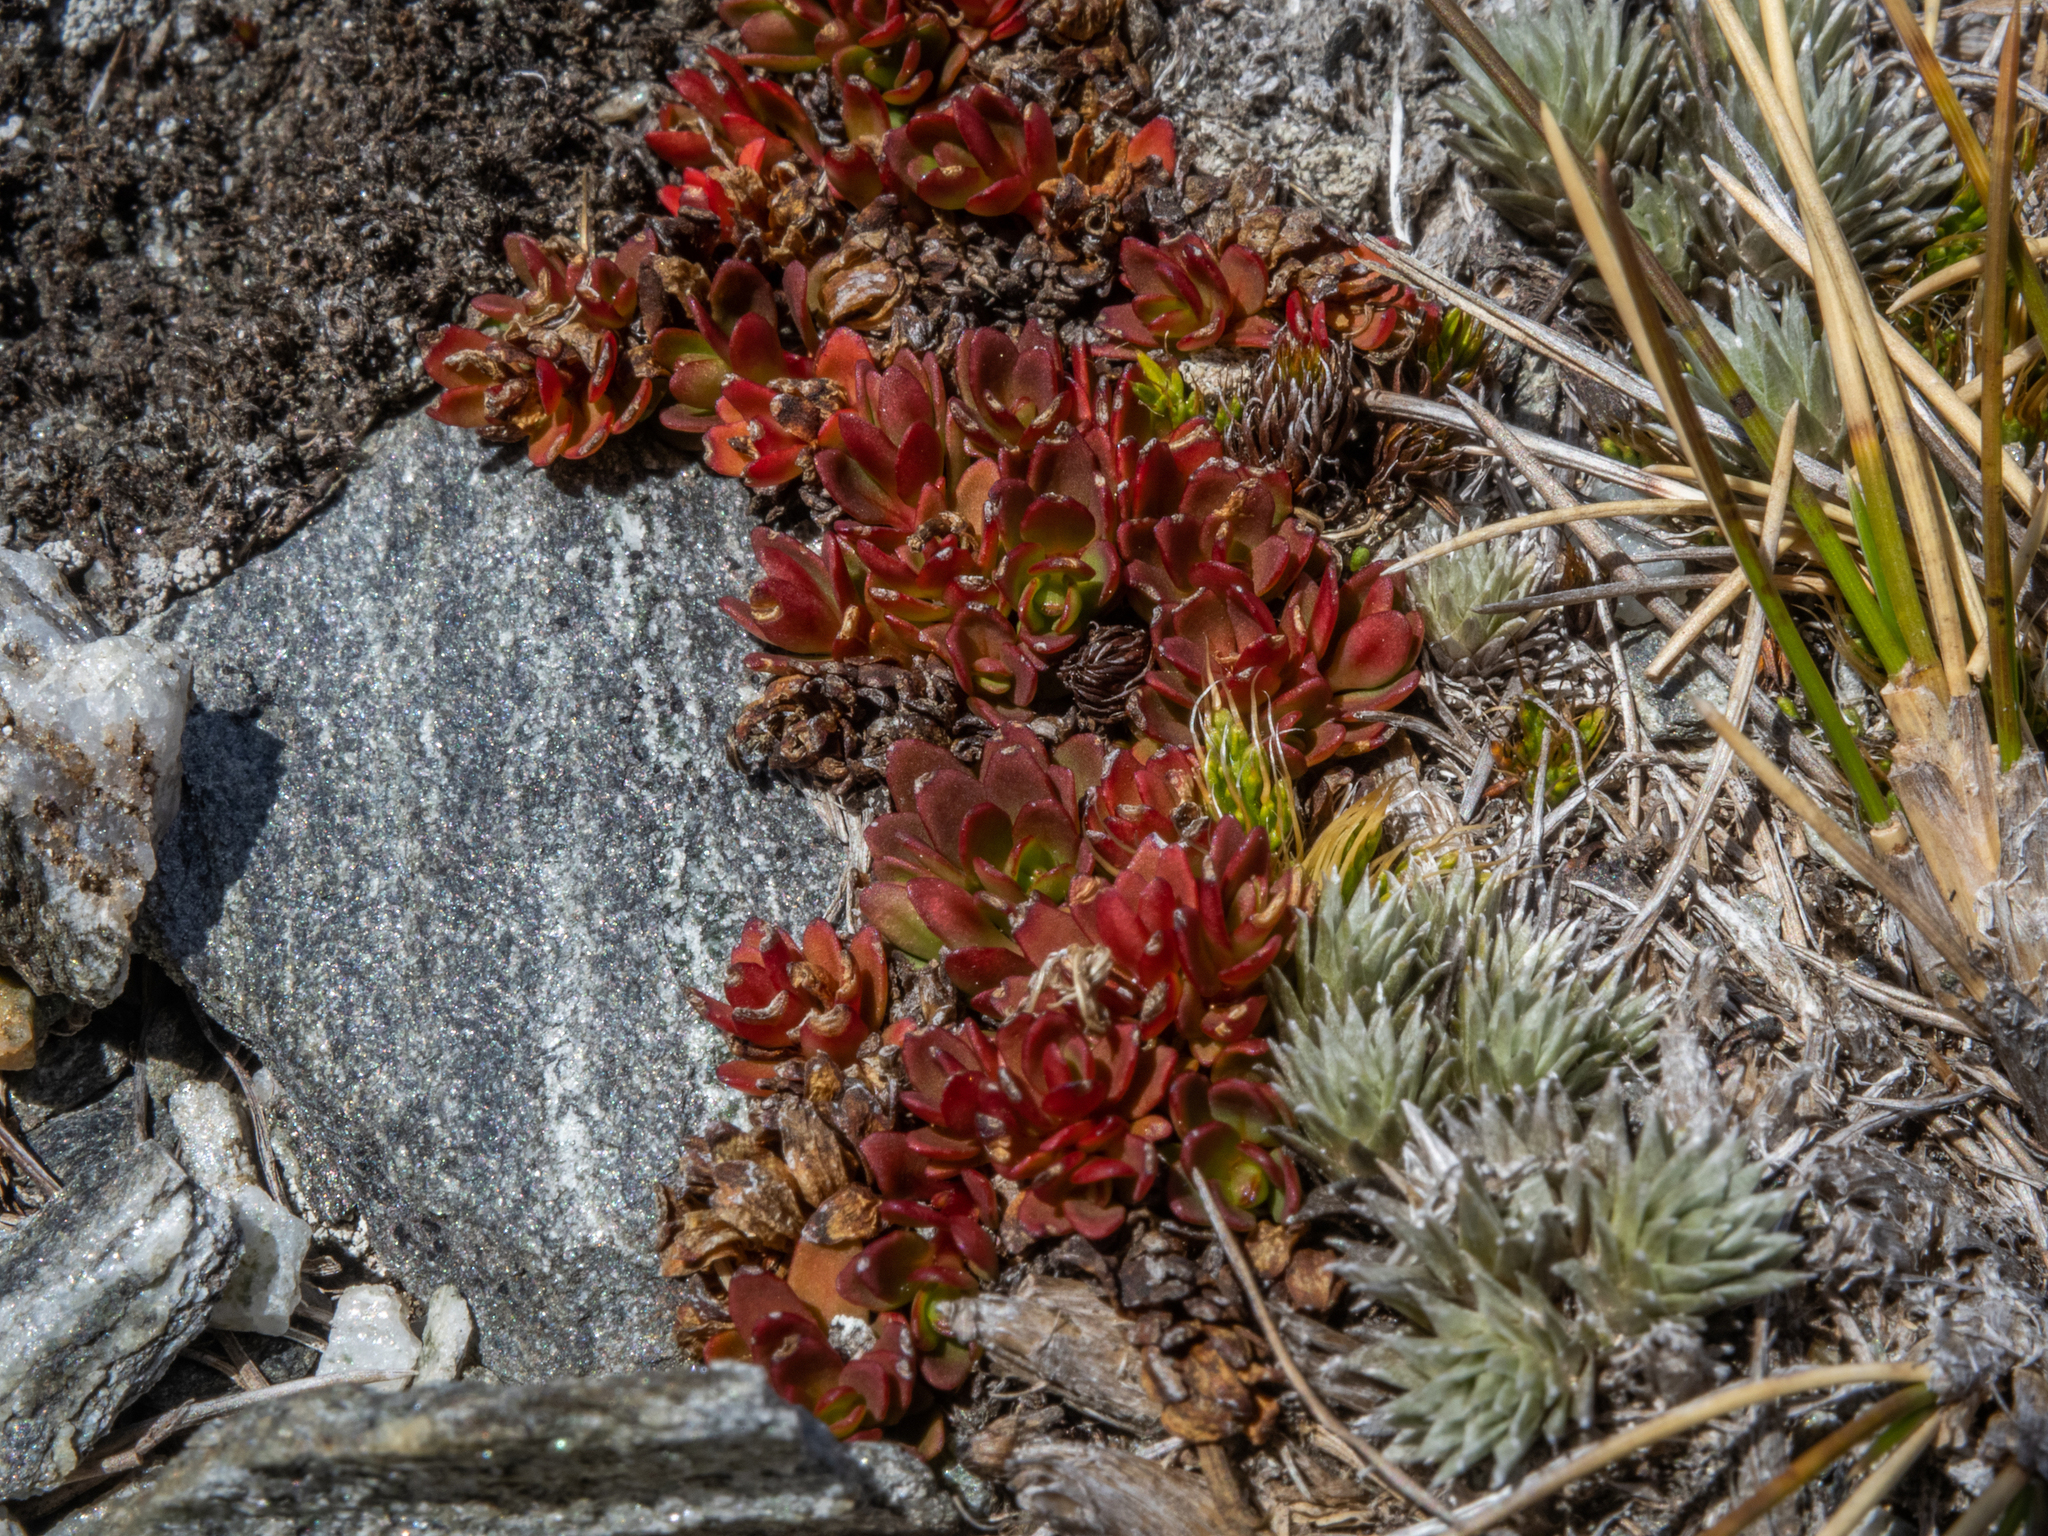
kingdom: Plantae
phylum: Tracheophyta
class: Magnoliopsida
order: Myrtales
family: Onagraceae
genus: Epilobium
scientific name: Epilobium tasmanicum
